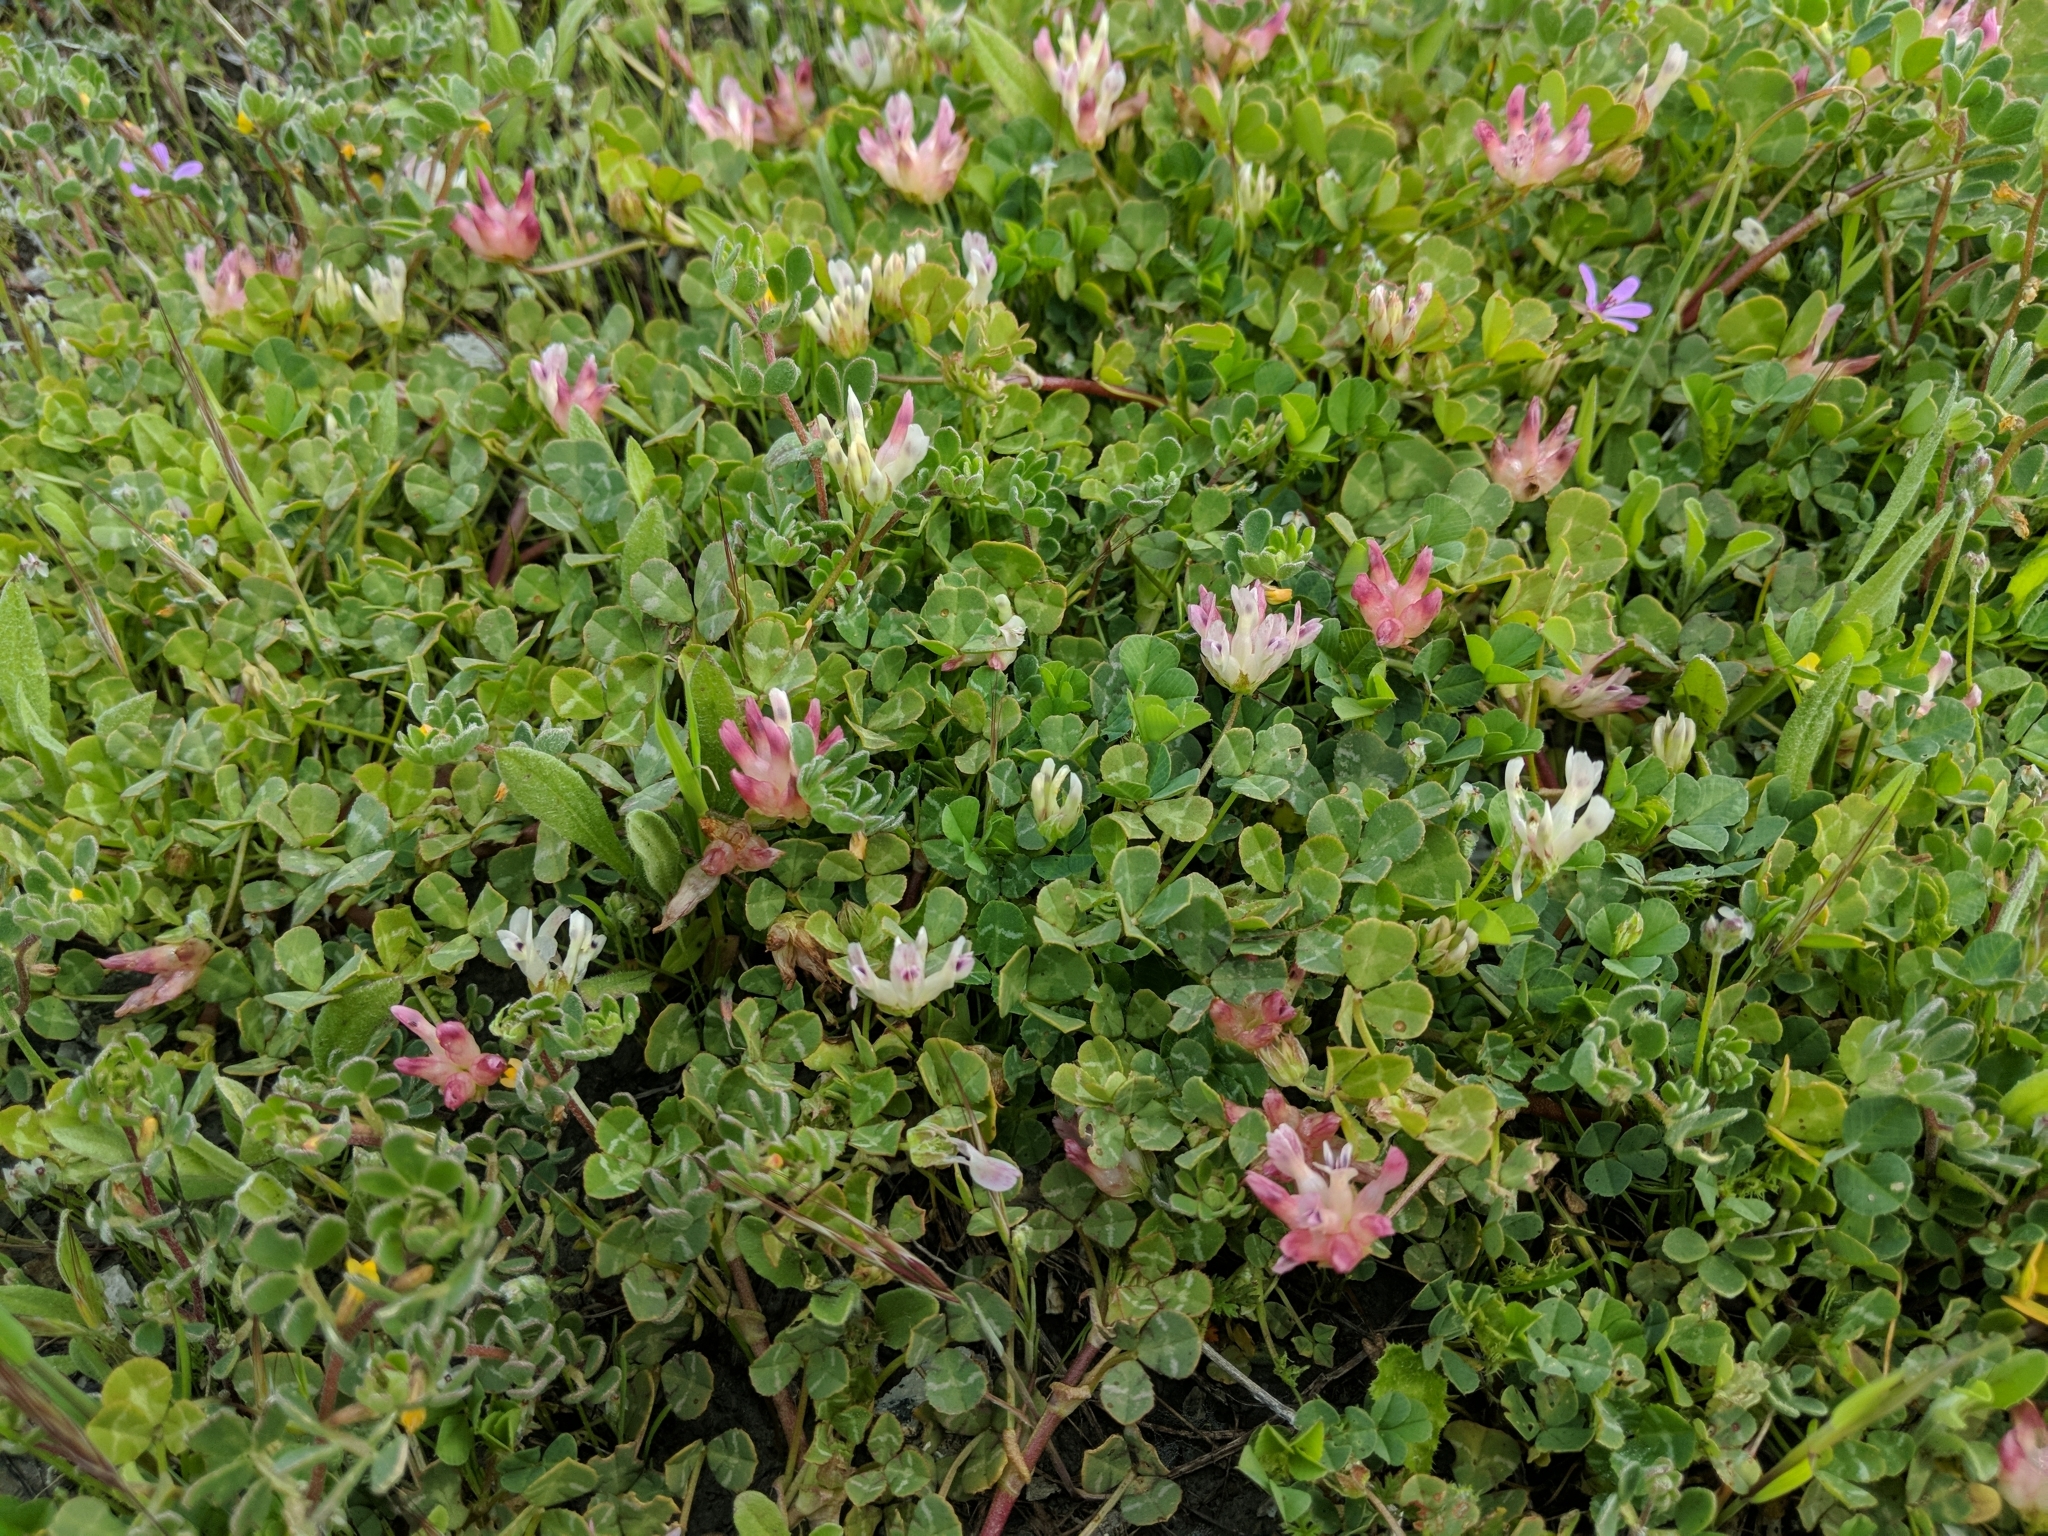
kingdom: Plantae
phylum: Tracheophyta
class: Magnoliopsida
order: Fabales
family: Fabaceae
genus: Trifolium
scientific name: Trifolium fucatum
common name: Puff clover
